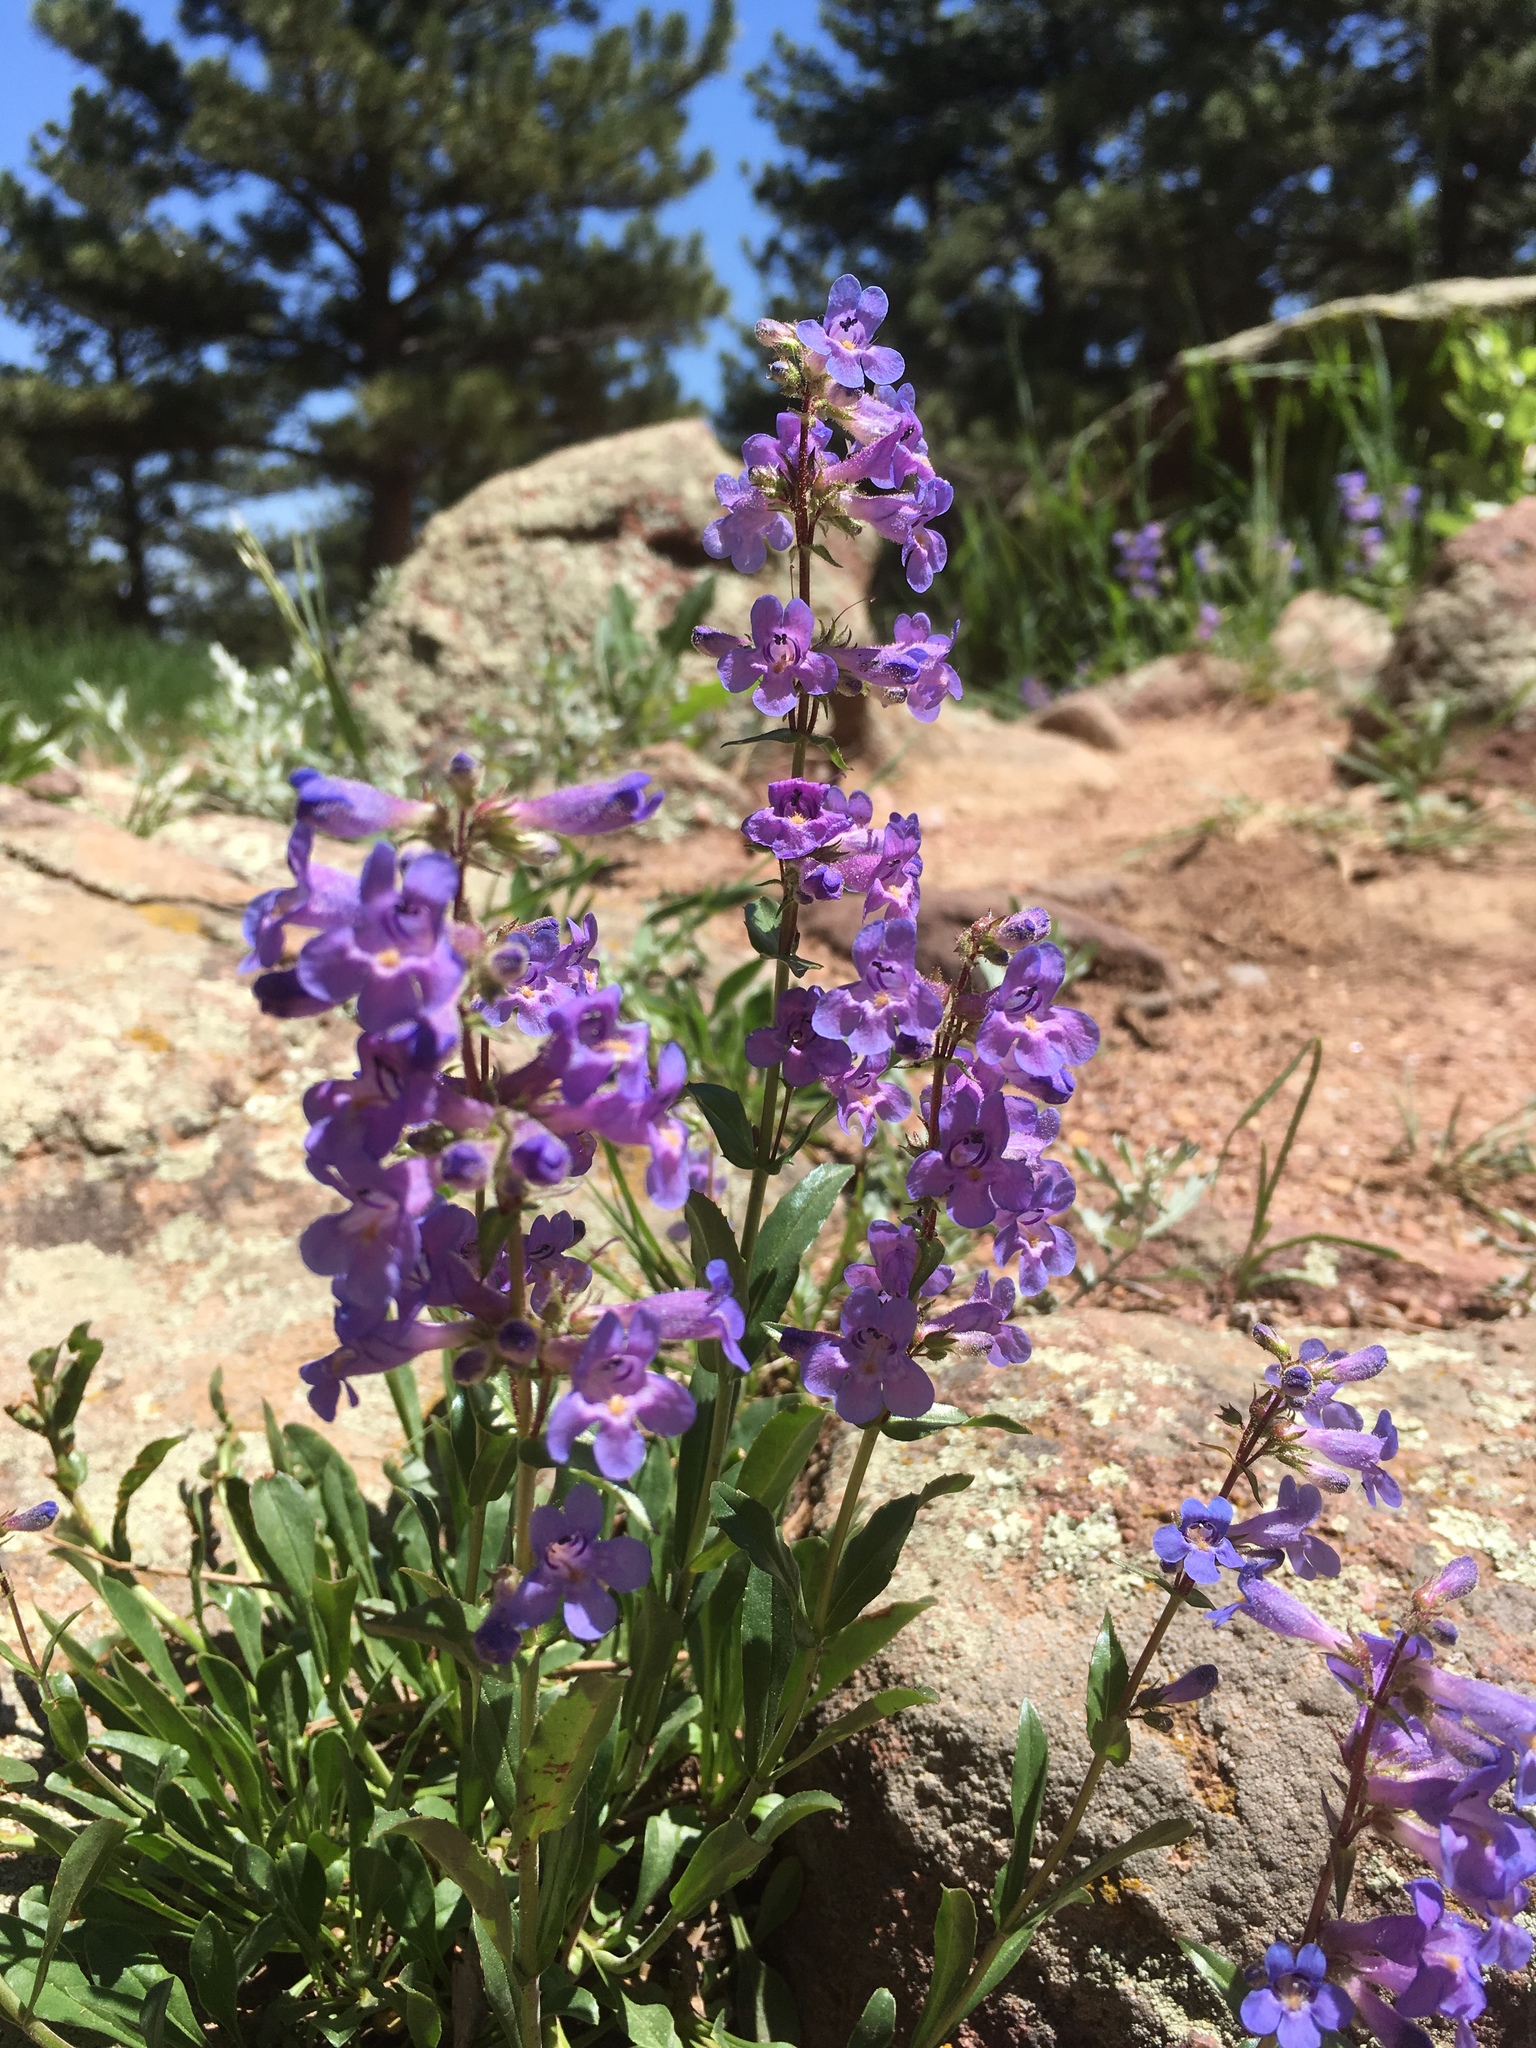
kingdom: Plantae
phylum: Tracheophyta
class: Magnoliopsida
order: Lamiales
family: Plantaginaceae
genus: Penstemon
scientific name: Penstemon virens
